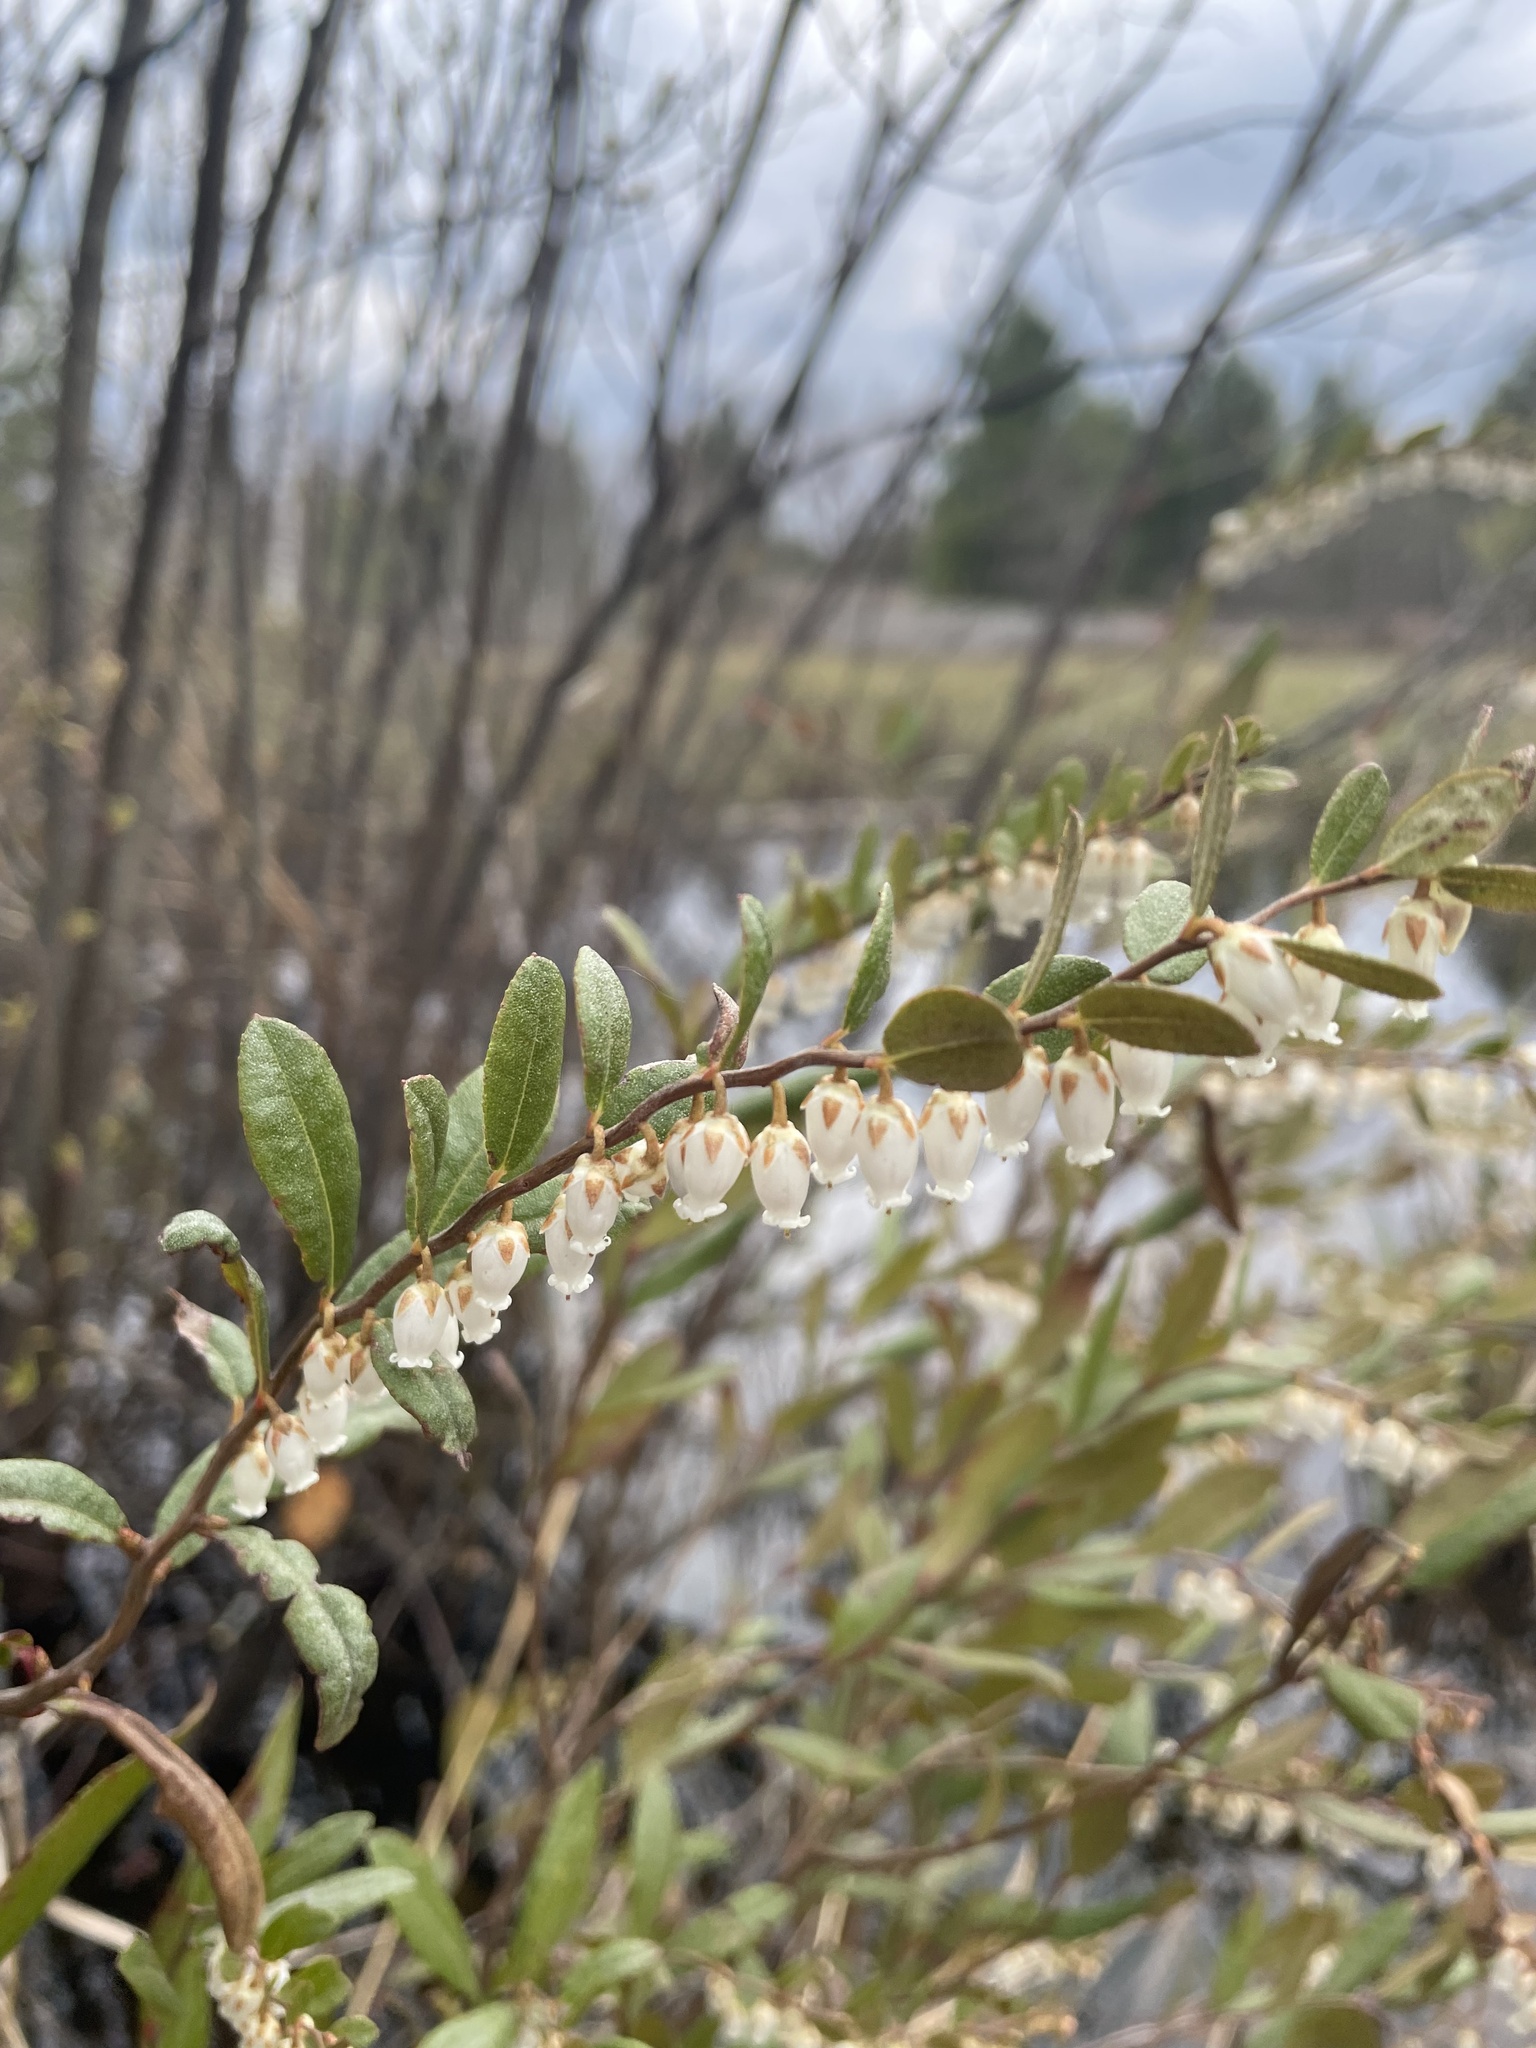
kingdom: Plantae
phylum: Tracheophyta
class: Magnoliopsida
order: Ericales
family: Ericaceae
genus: Chamaedaphne
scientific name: Chamaedaphne calyculata
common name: Leatherleaf
